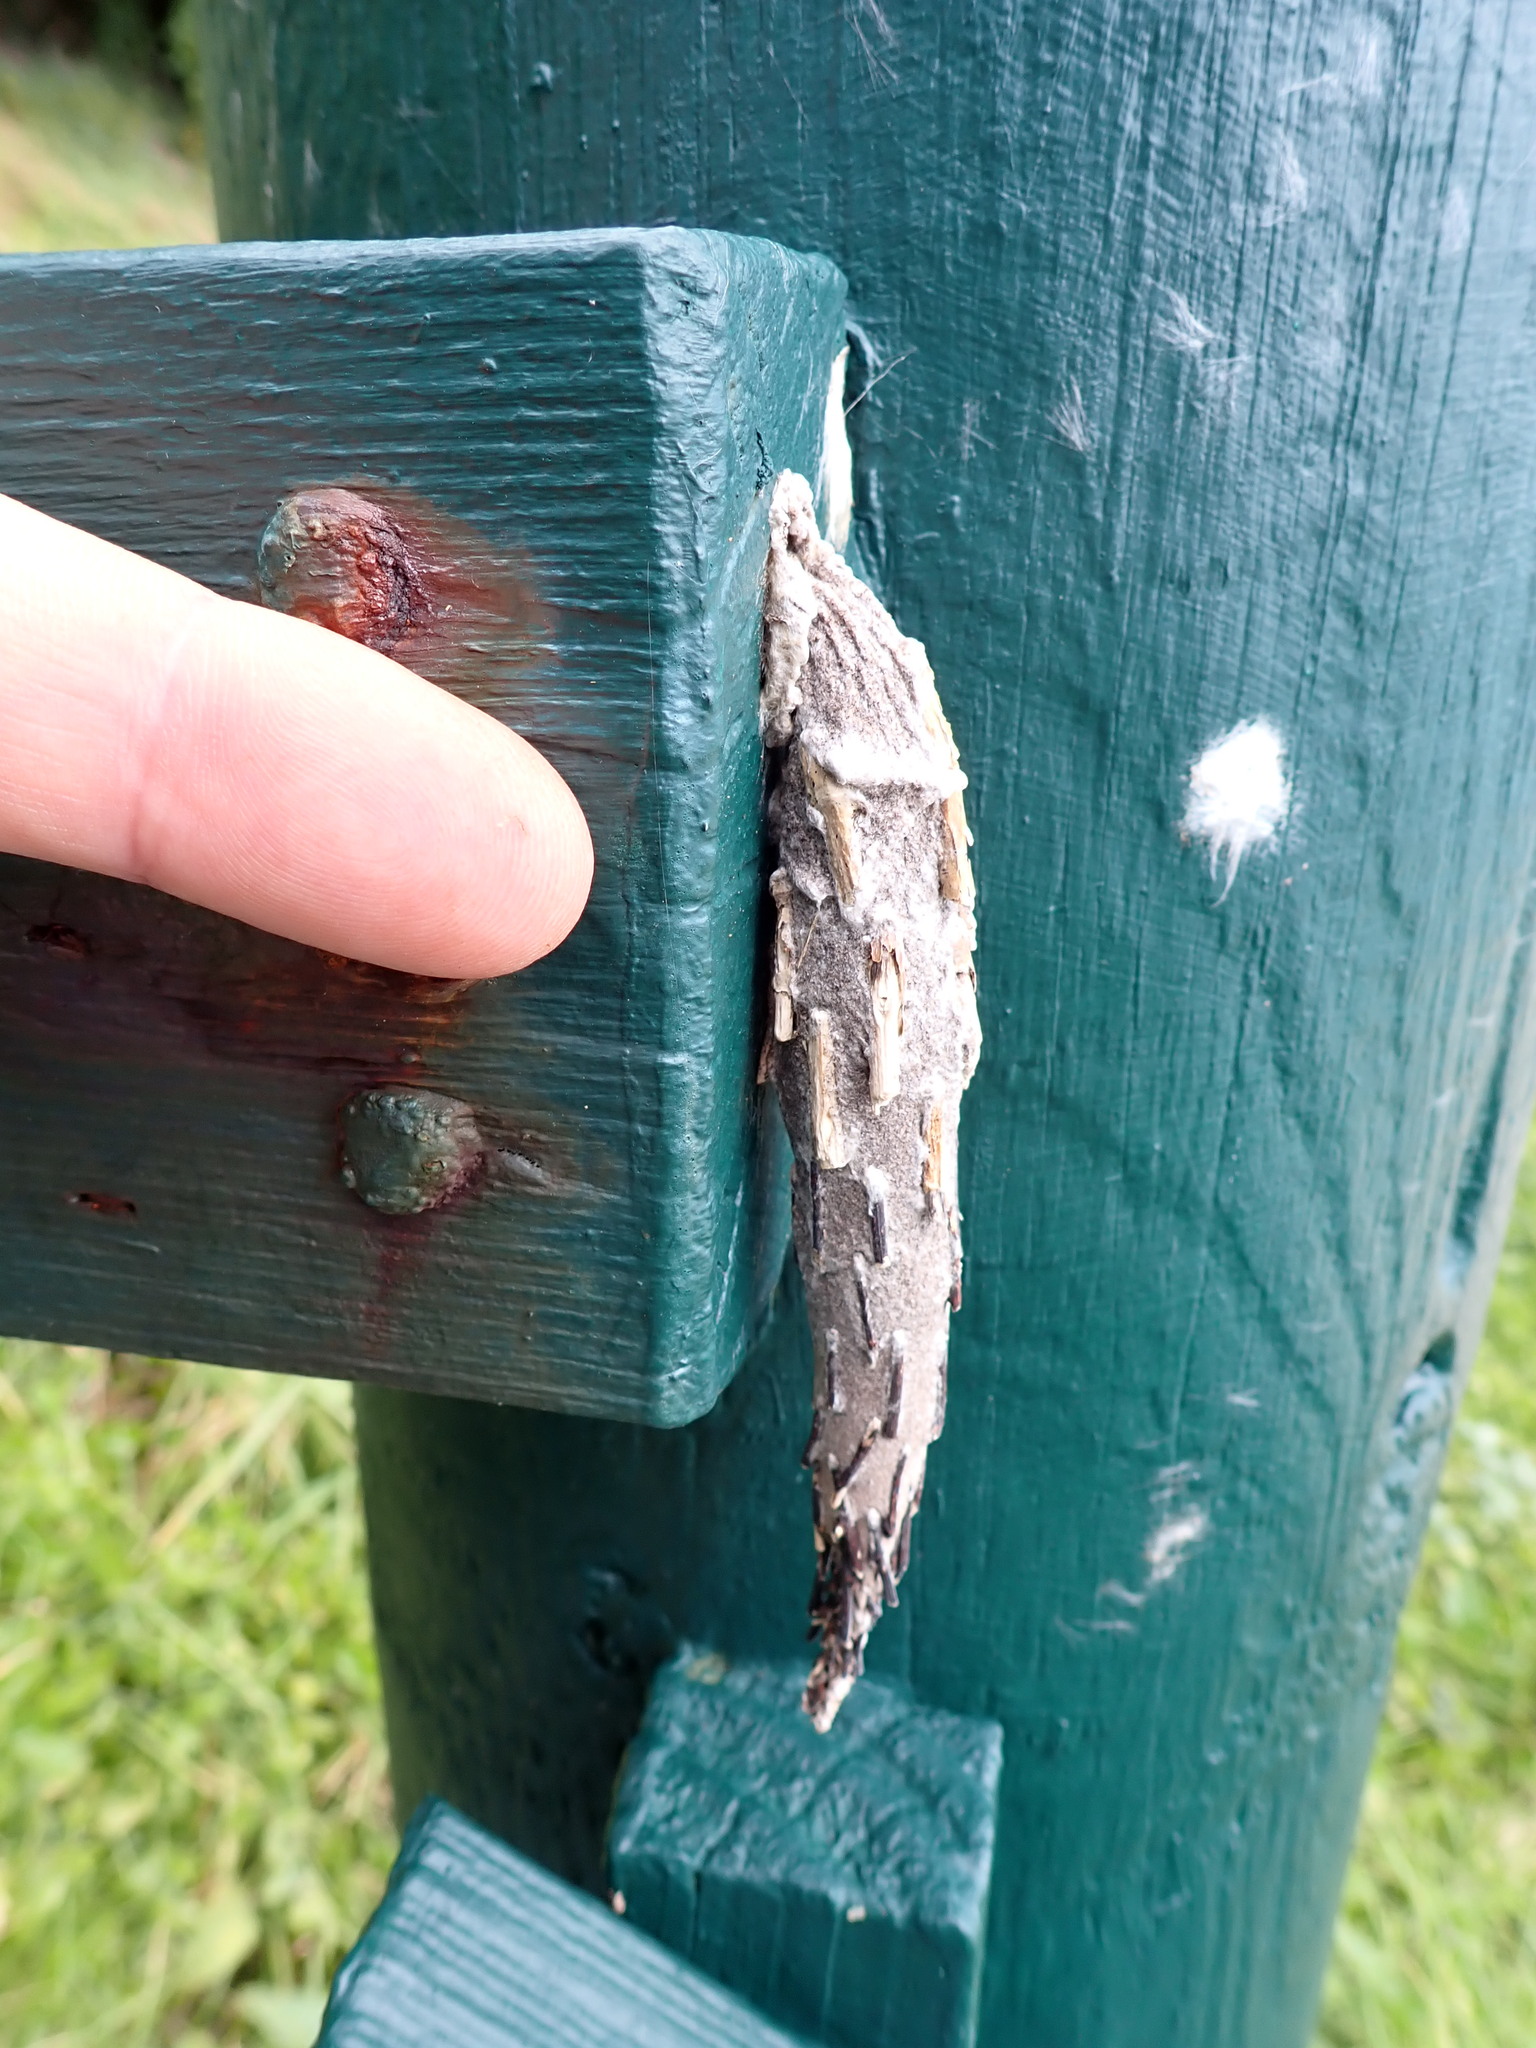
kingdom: Animalia
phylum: Arthropoda
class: Insecta
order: Lepidoptera
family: Psychidae
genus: Metura
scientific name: Metura falcata
